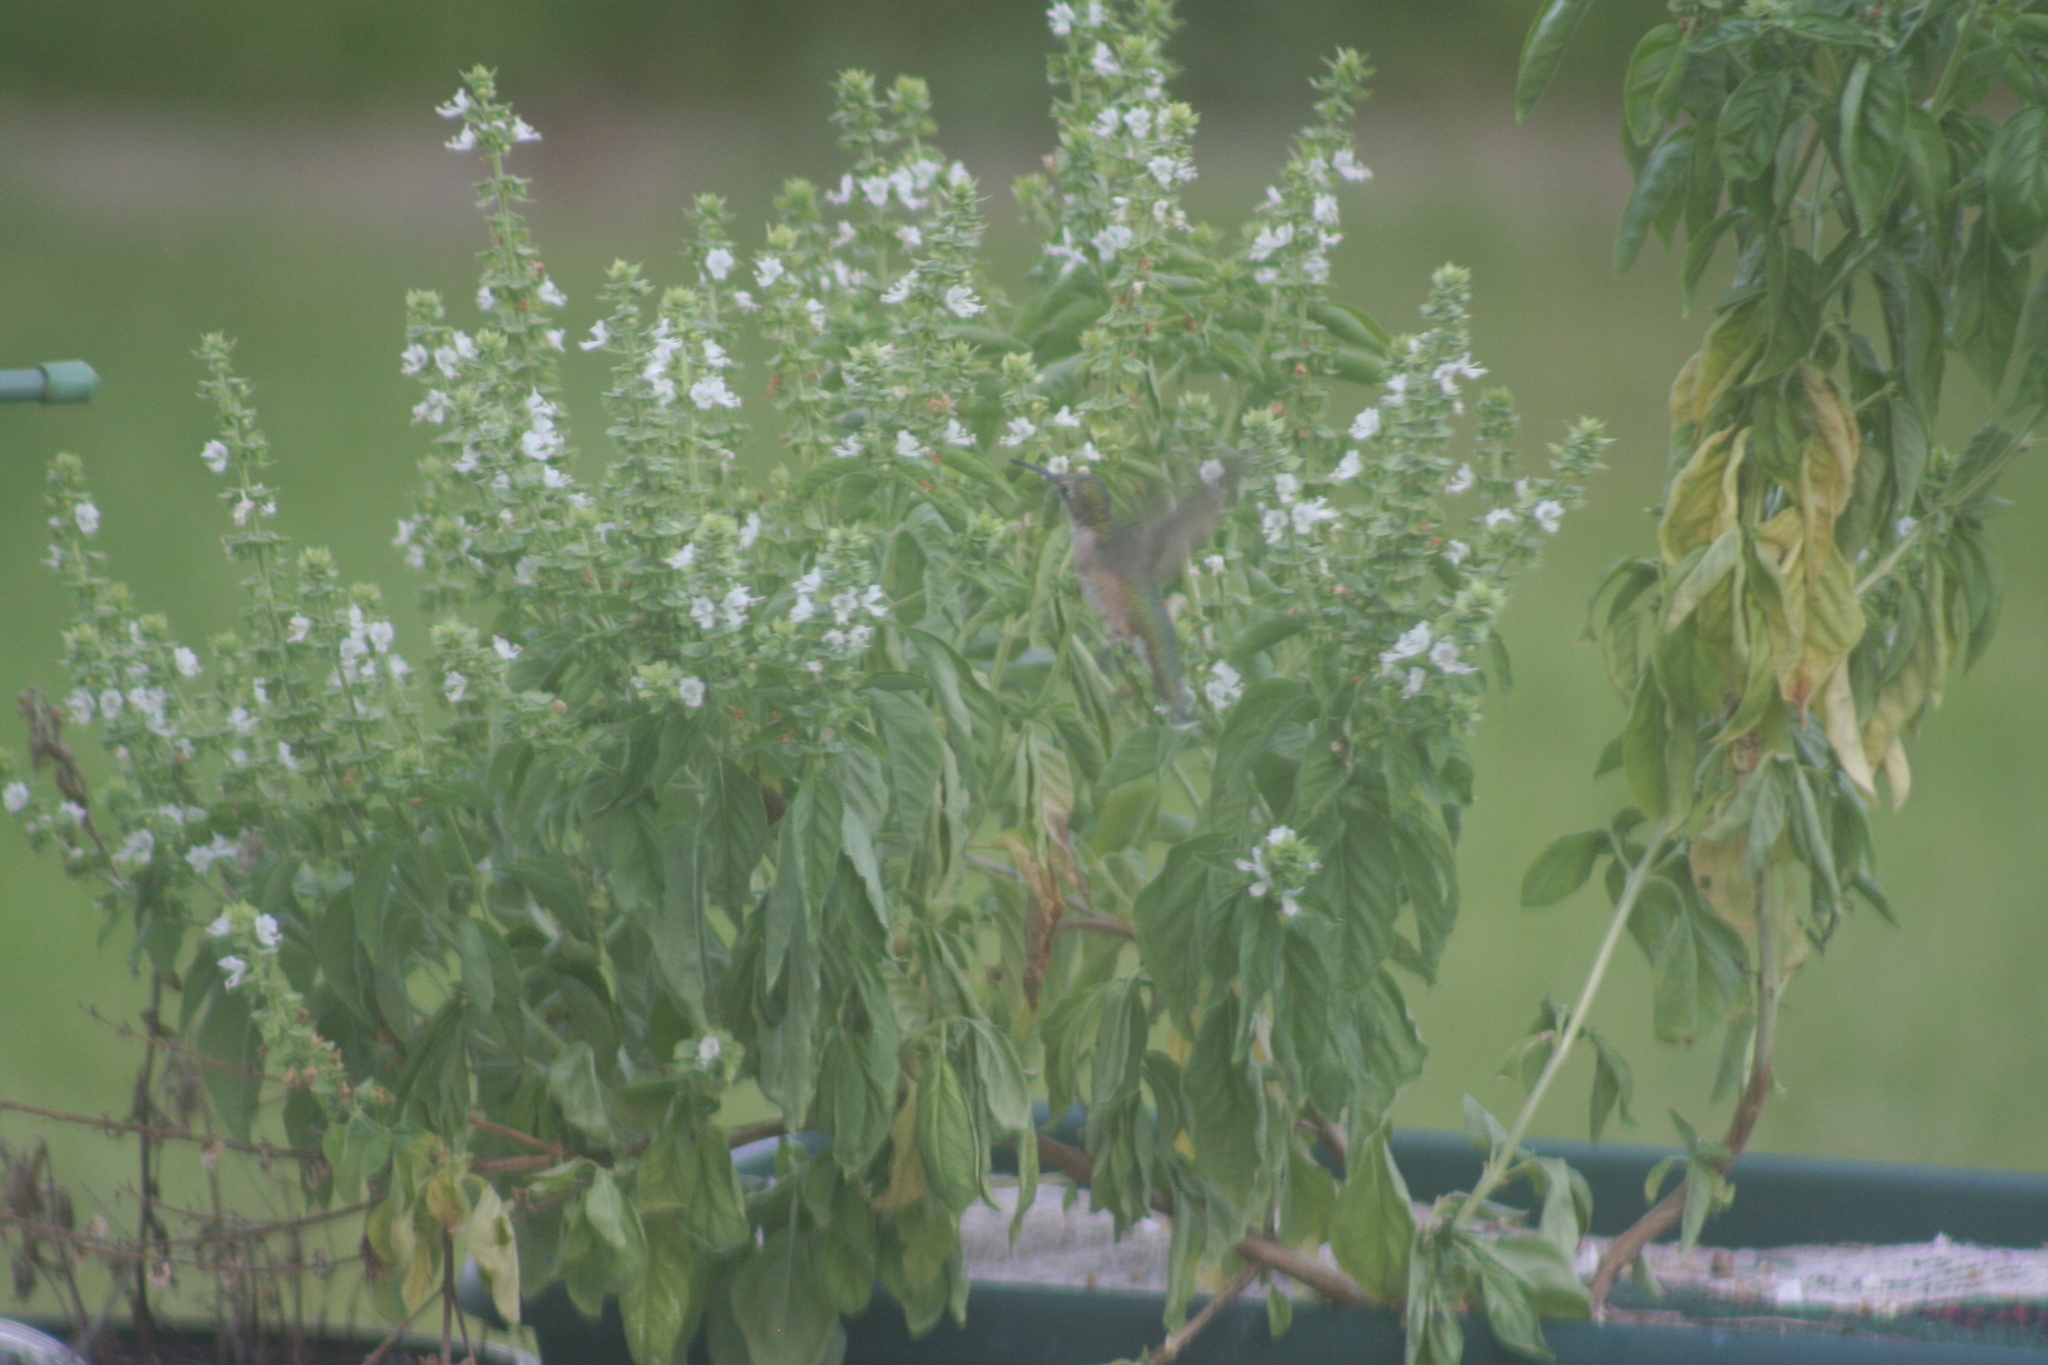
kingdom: Animalia
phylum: Chordata
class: Aves
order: Apodiformes
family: Trochilidae
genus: Archilochus
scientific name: Archilochus colubris
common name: Ruby-throated hummingbird
